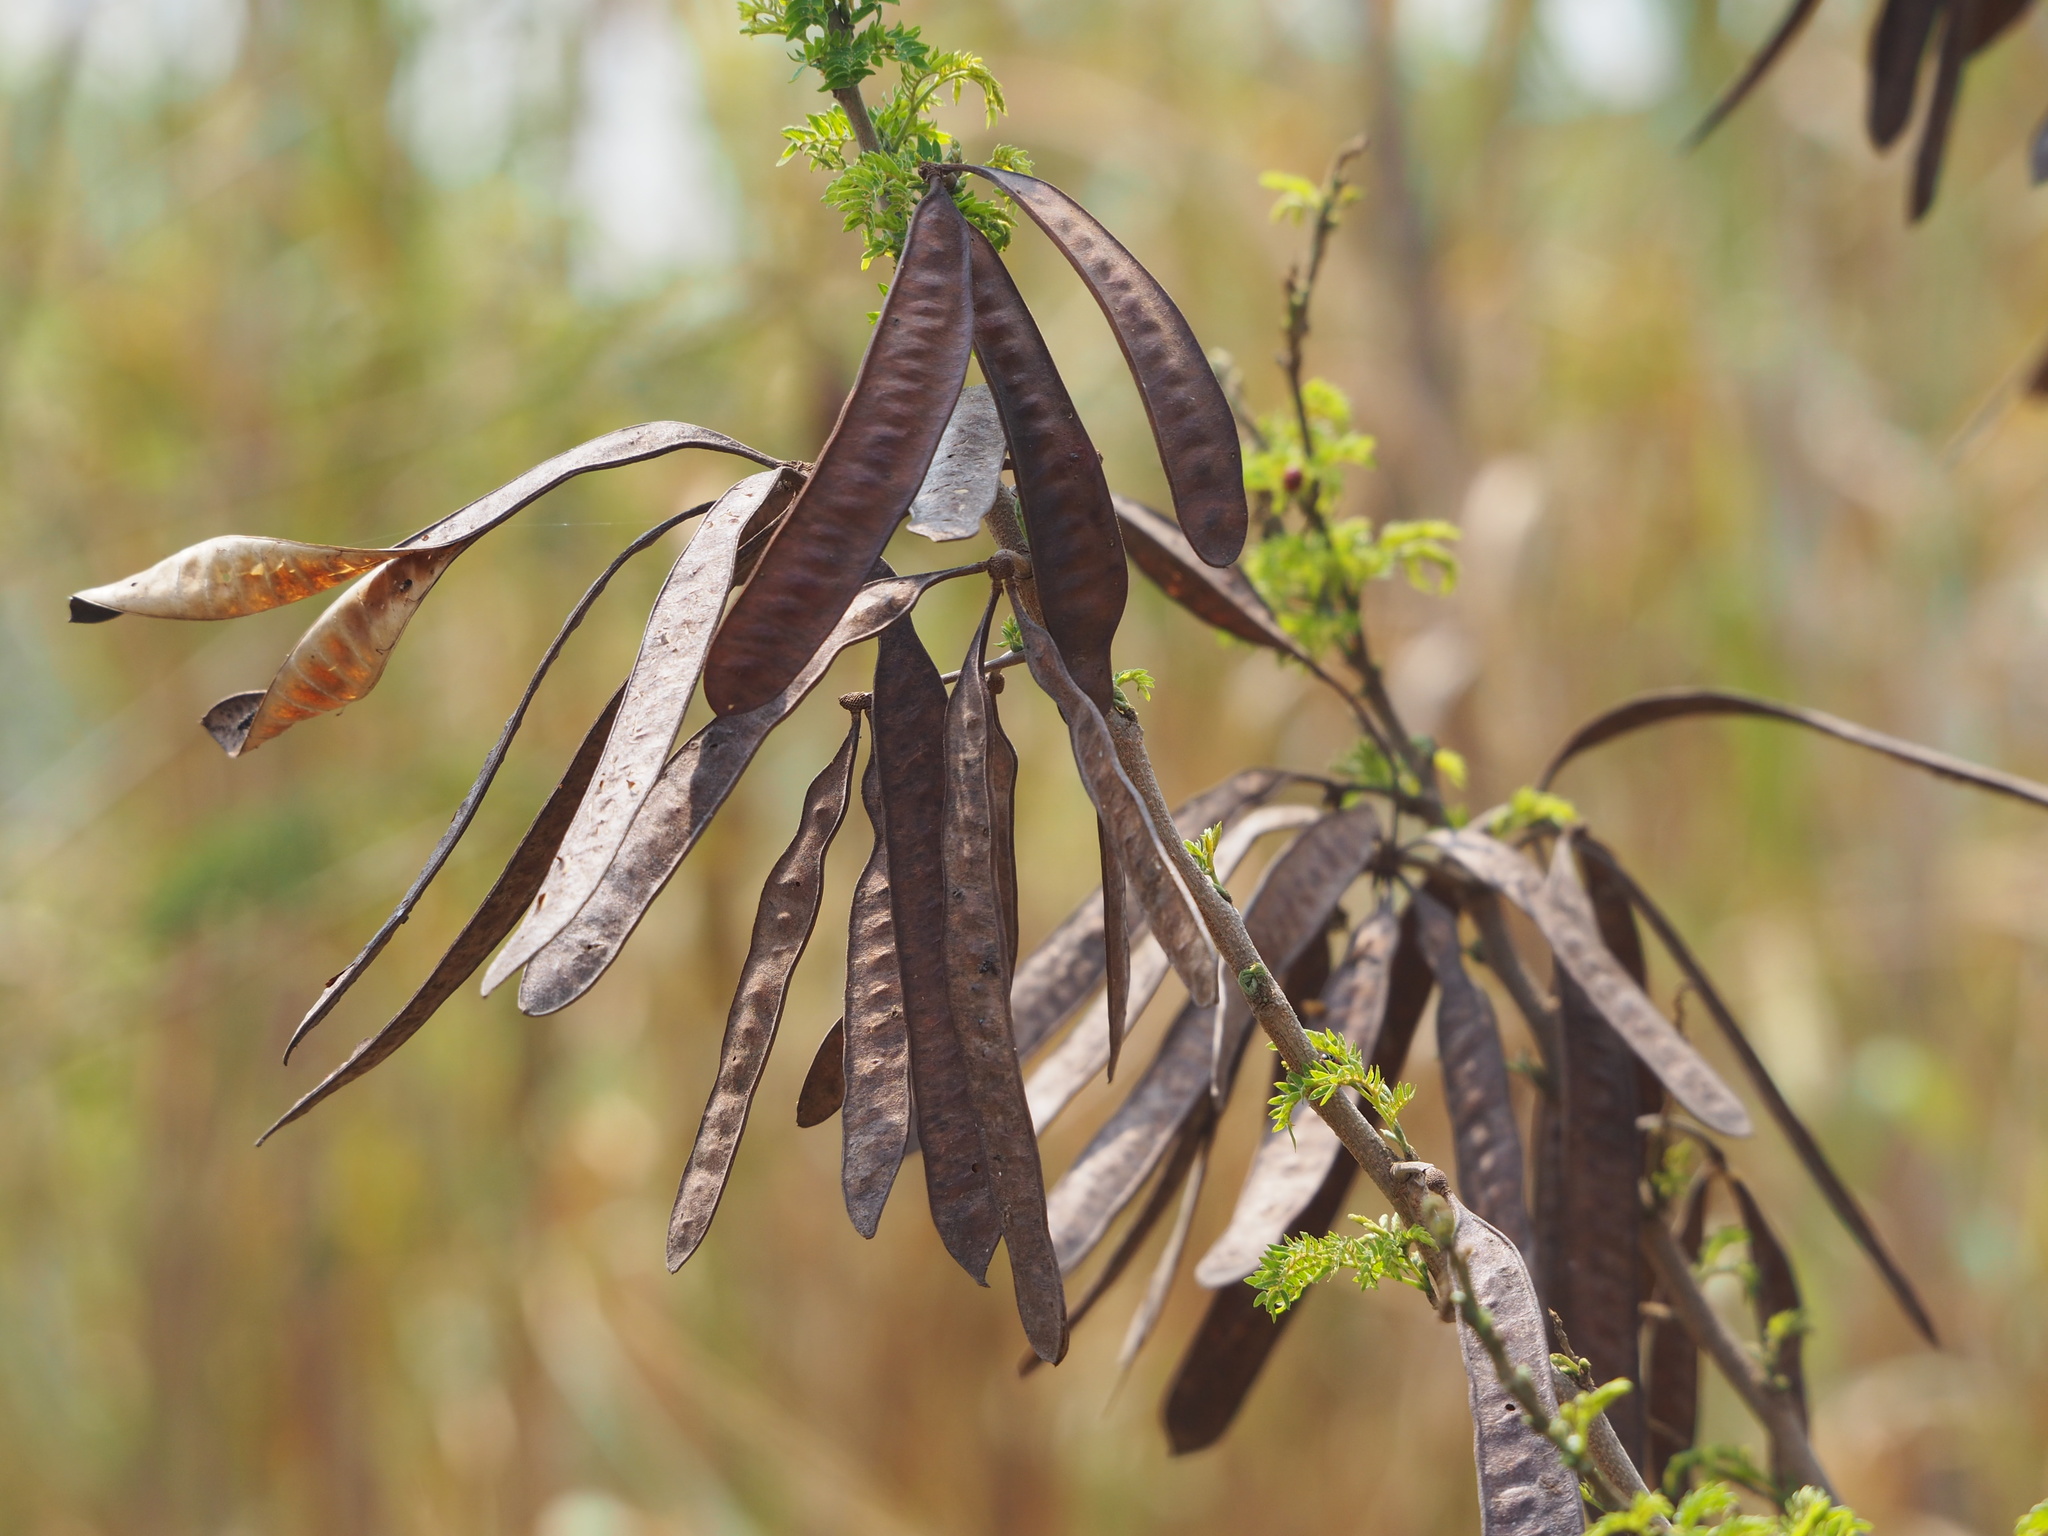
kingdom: Plantae
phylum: Tracheophyta
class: Magnoliopsida
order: Fabales
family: Fabaceae
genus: Leucaena
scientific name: Leucaena leucocephala
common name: White leadtree
